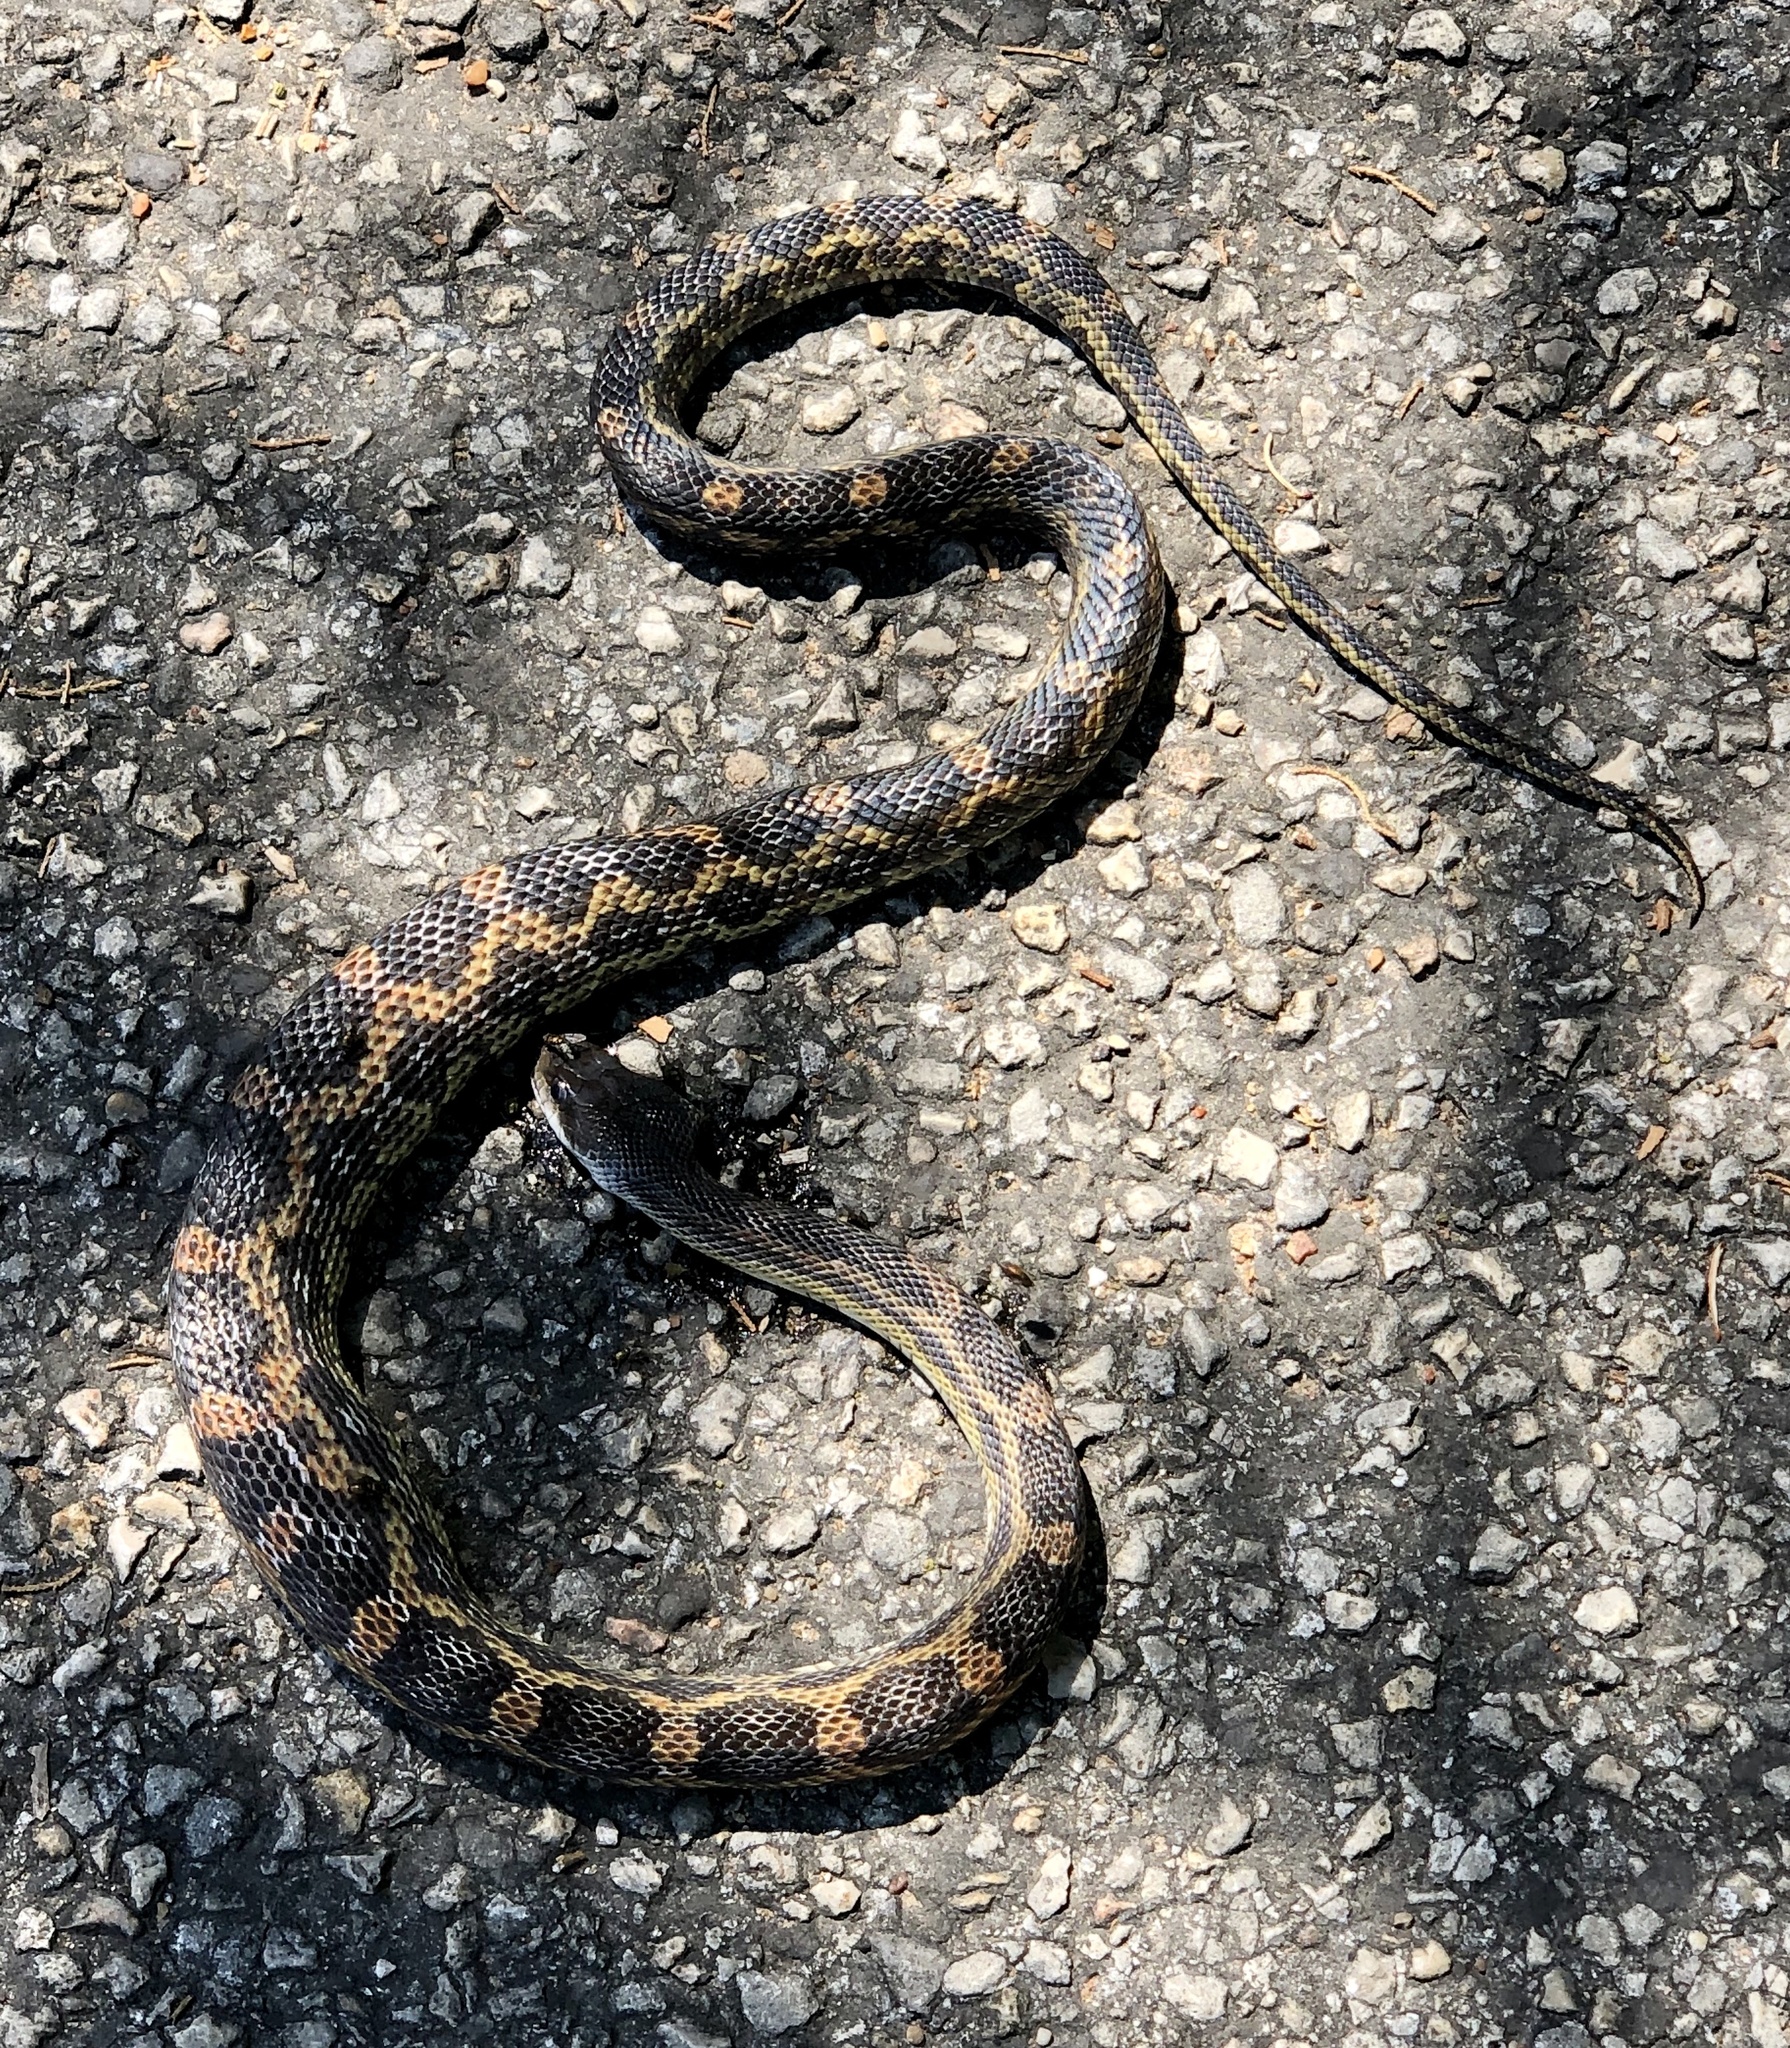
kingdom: Animalia
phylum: Chordata
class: Squamata
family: Colubridae
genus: Pantherophis
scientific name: Pantherophis obsoletus
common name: Black rat snake
